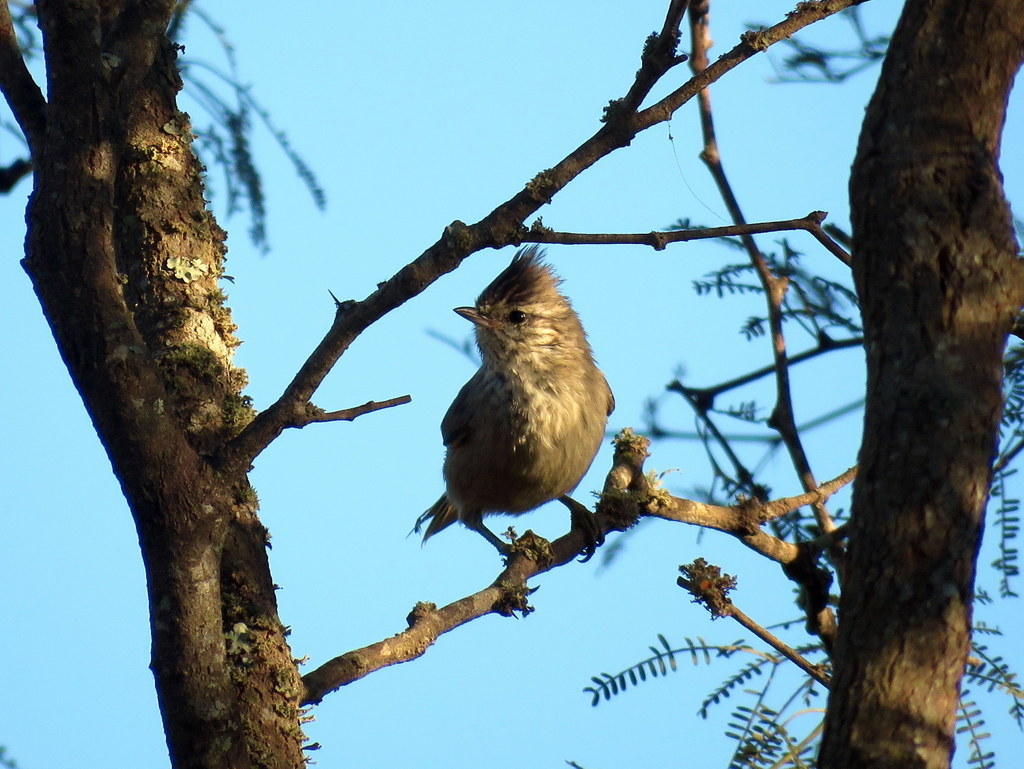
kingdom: Animalia
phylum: Chordata
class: Aves
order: Passeriformes
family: Furnariidae
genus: Leptasthenura
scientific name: Leptasthenura platensis
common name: Tufted tit-spinetail
